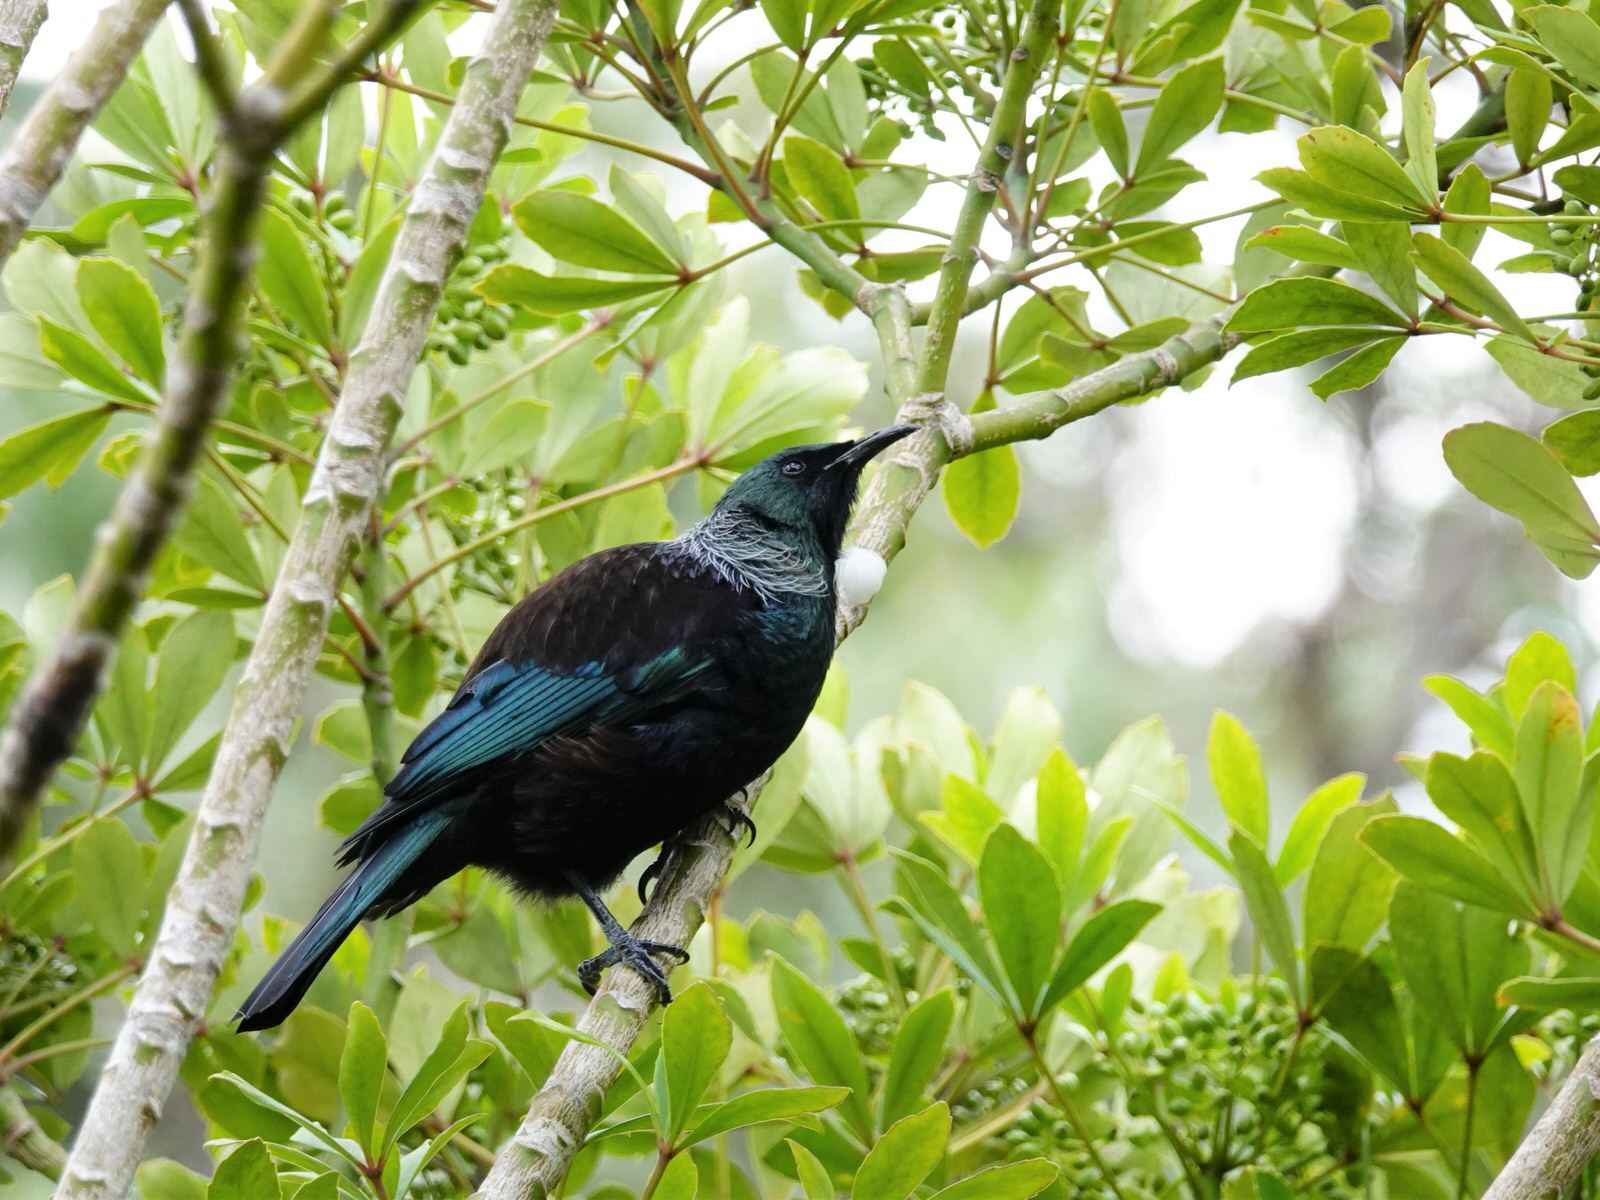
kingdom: Animalia
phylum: Chordata
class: Aves
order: Passeriformes
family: Meliphagidae
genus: Prosthemadera
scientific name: Prosthemadera novaeseelandiae
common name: Tui
